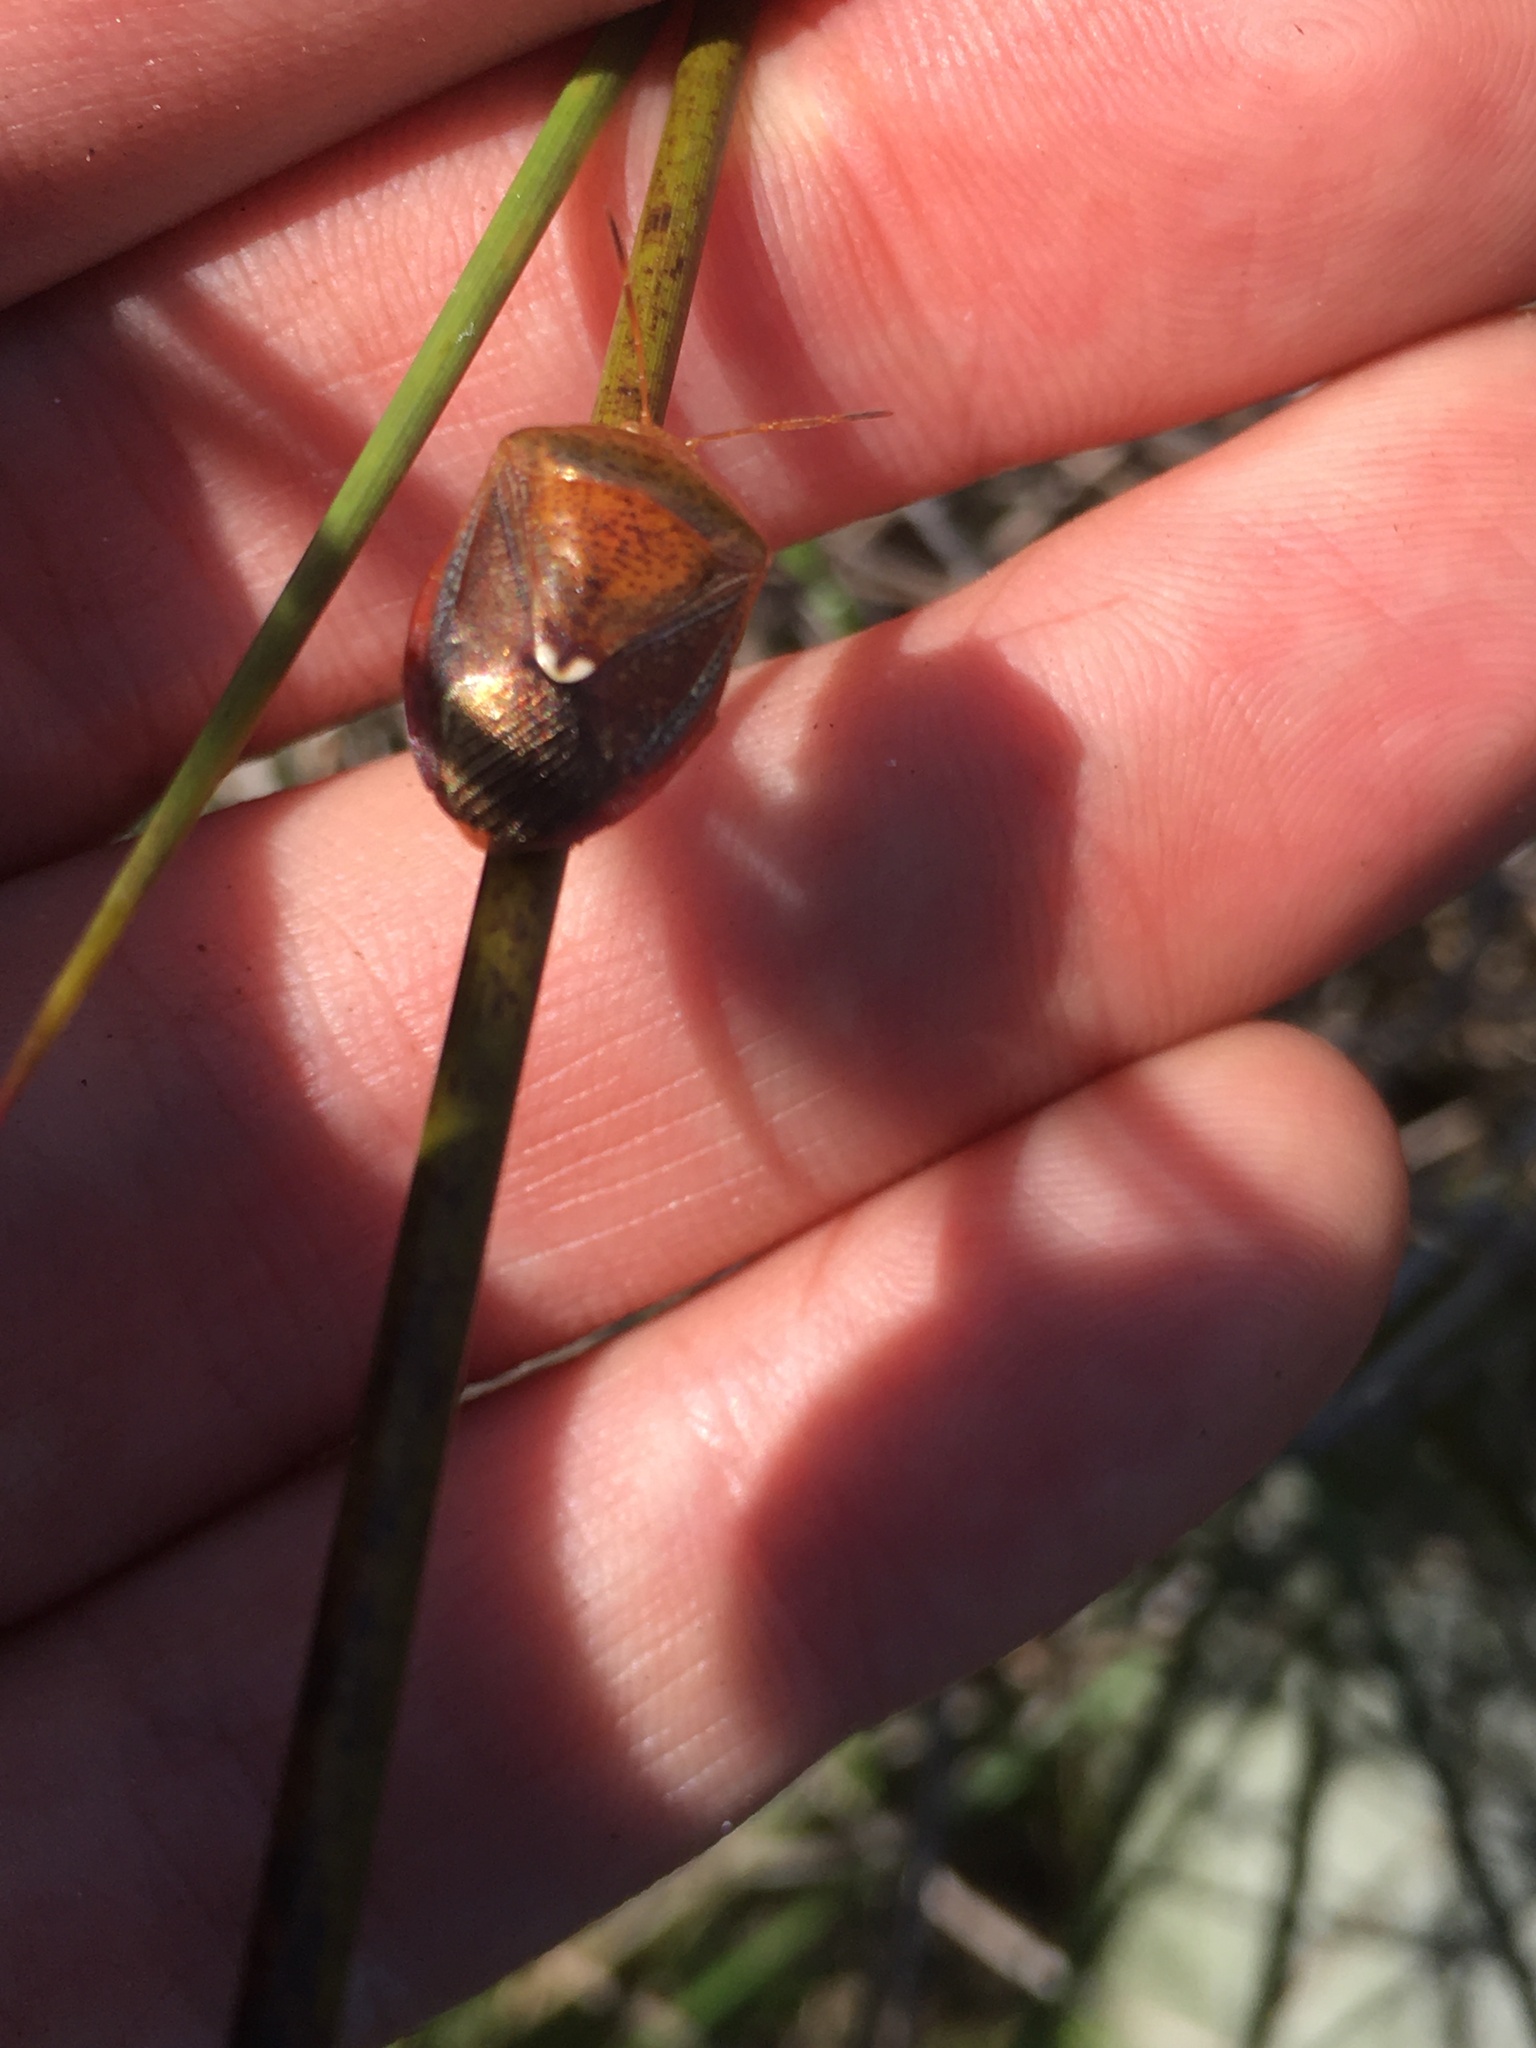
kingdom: Animalia
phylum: Arthropoda
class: Insecta
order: Hemiptera
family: Pentatomidae
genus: Edessa
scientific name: Edessa bifida
